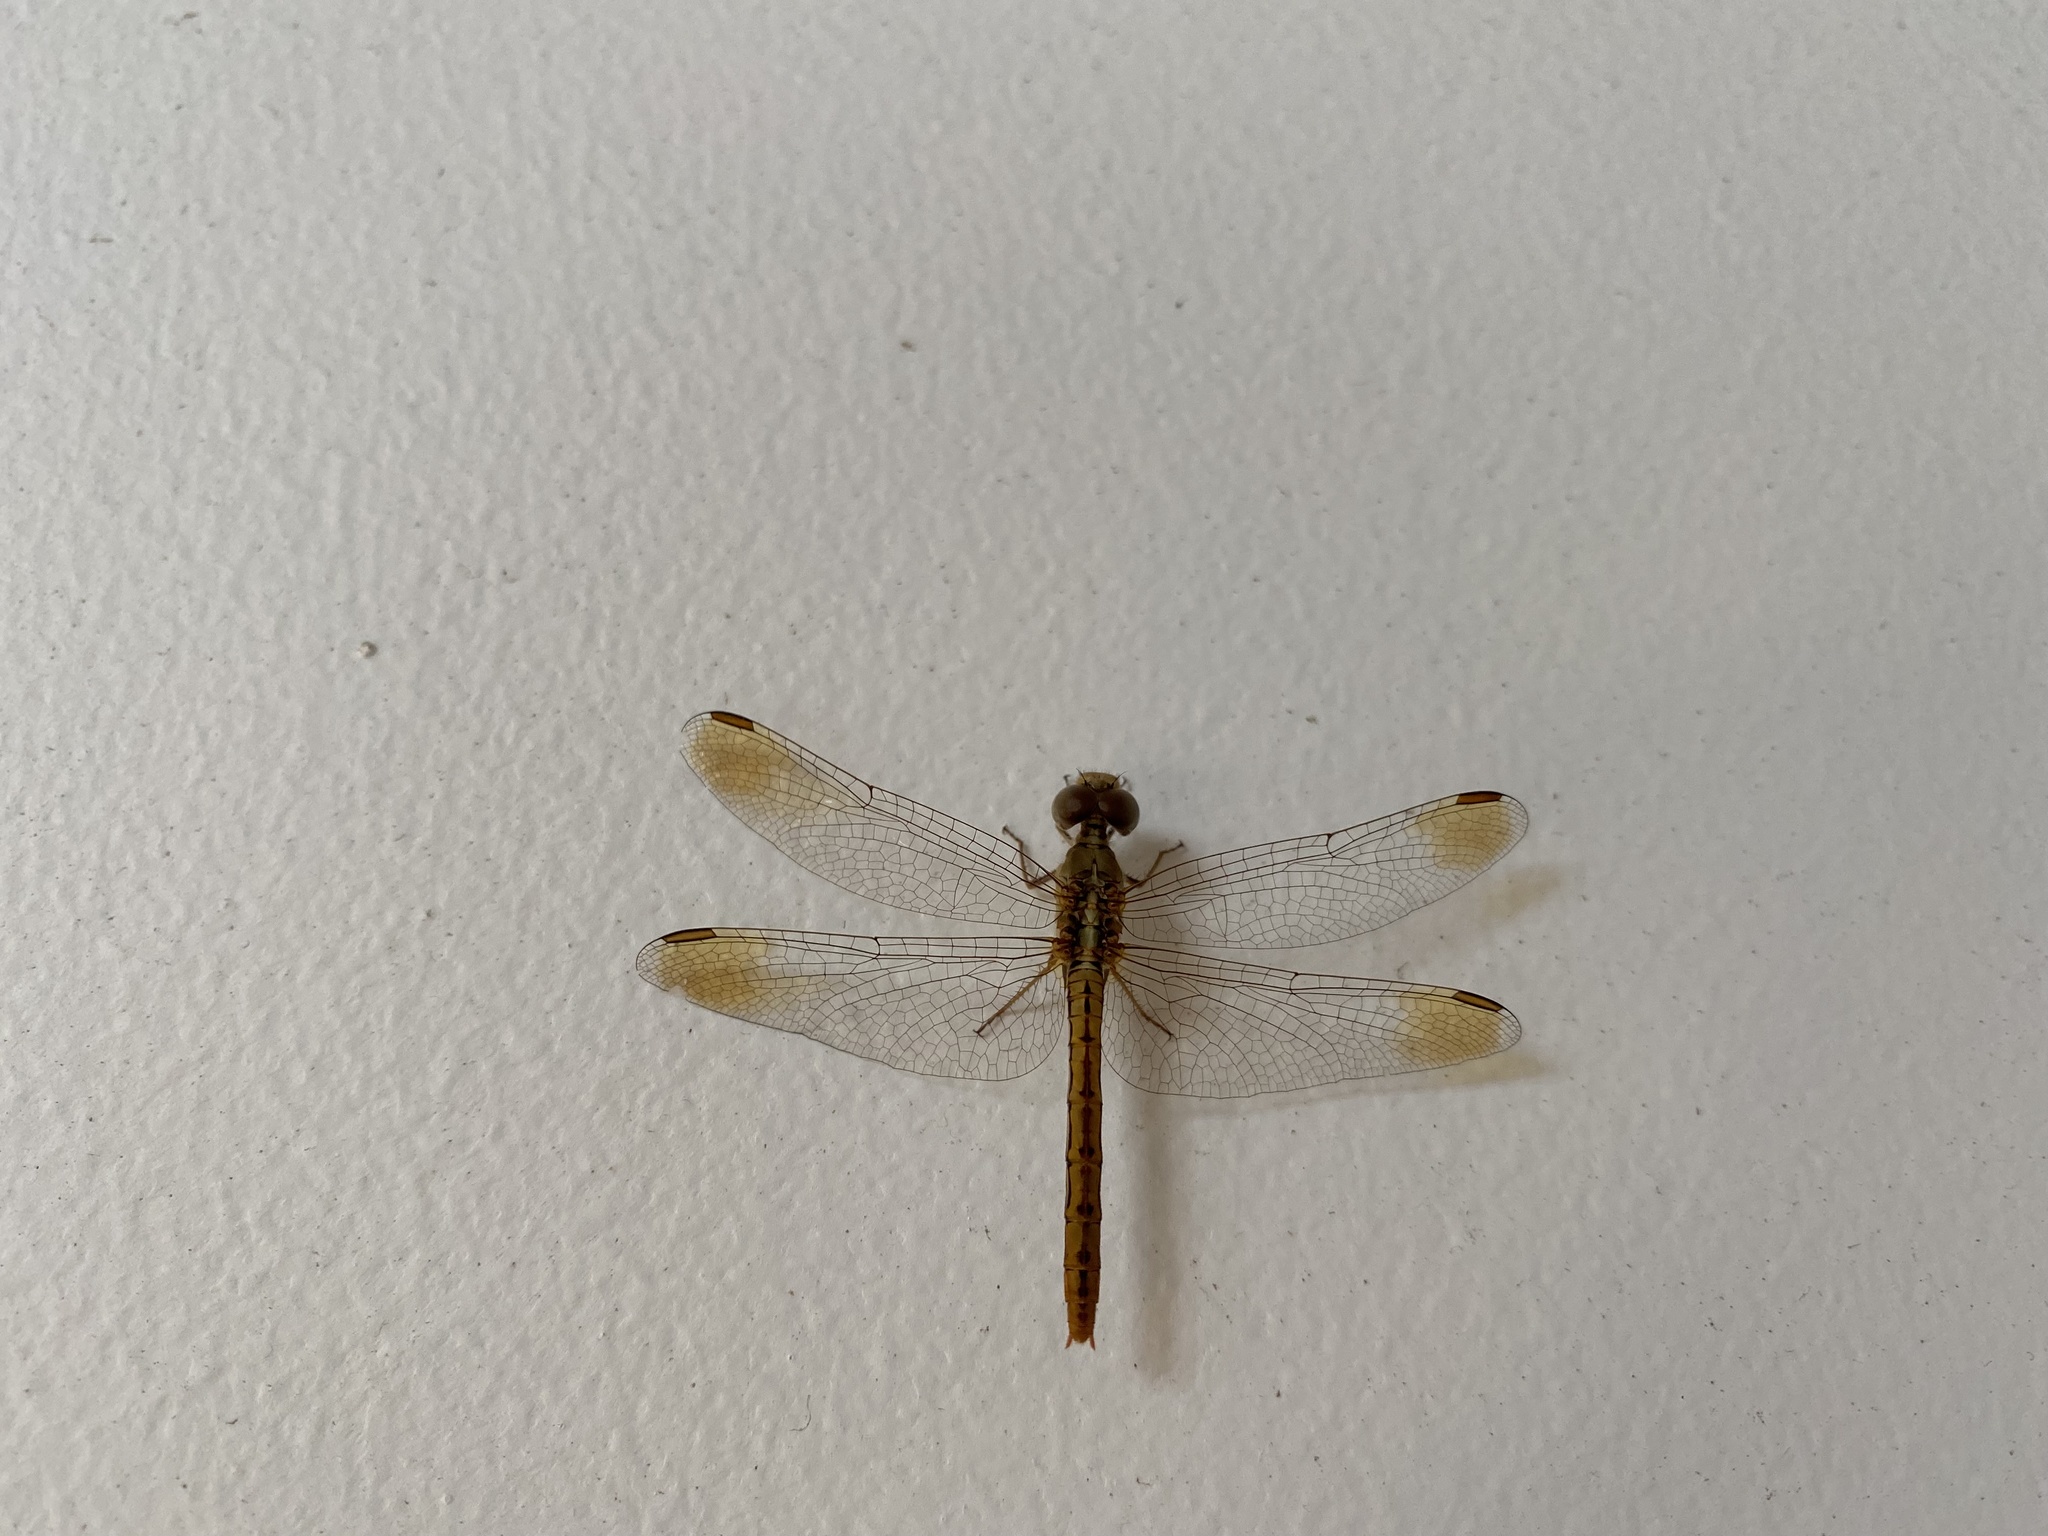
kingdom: Animalia
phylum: Arthropoda
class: Insecta
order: Odonata
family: Libellulidae
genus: Diplacodes
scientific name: Diplacodes haematodes
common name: Scarlet percher
